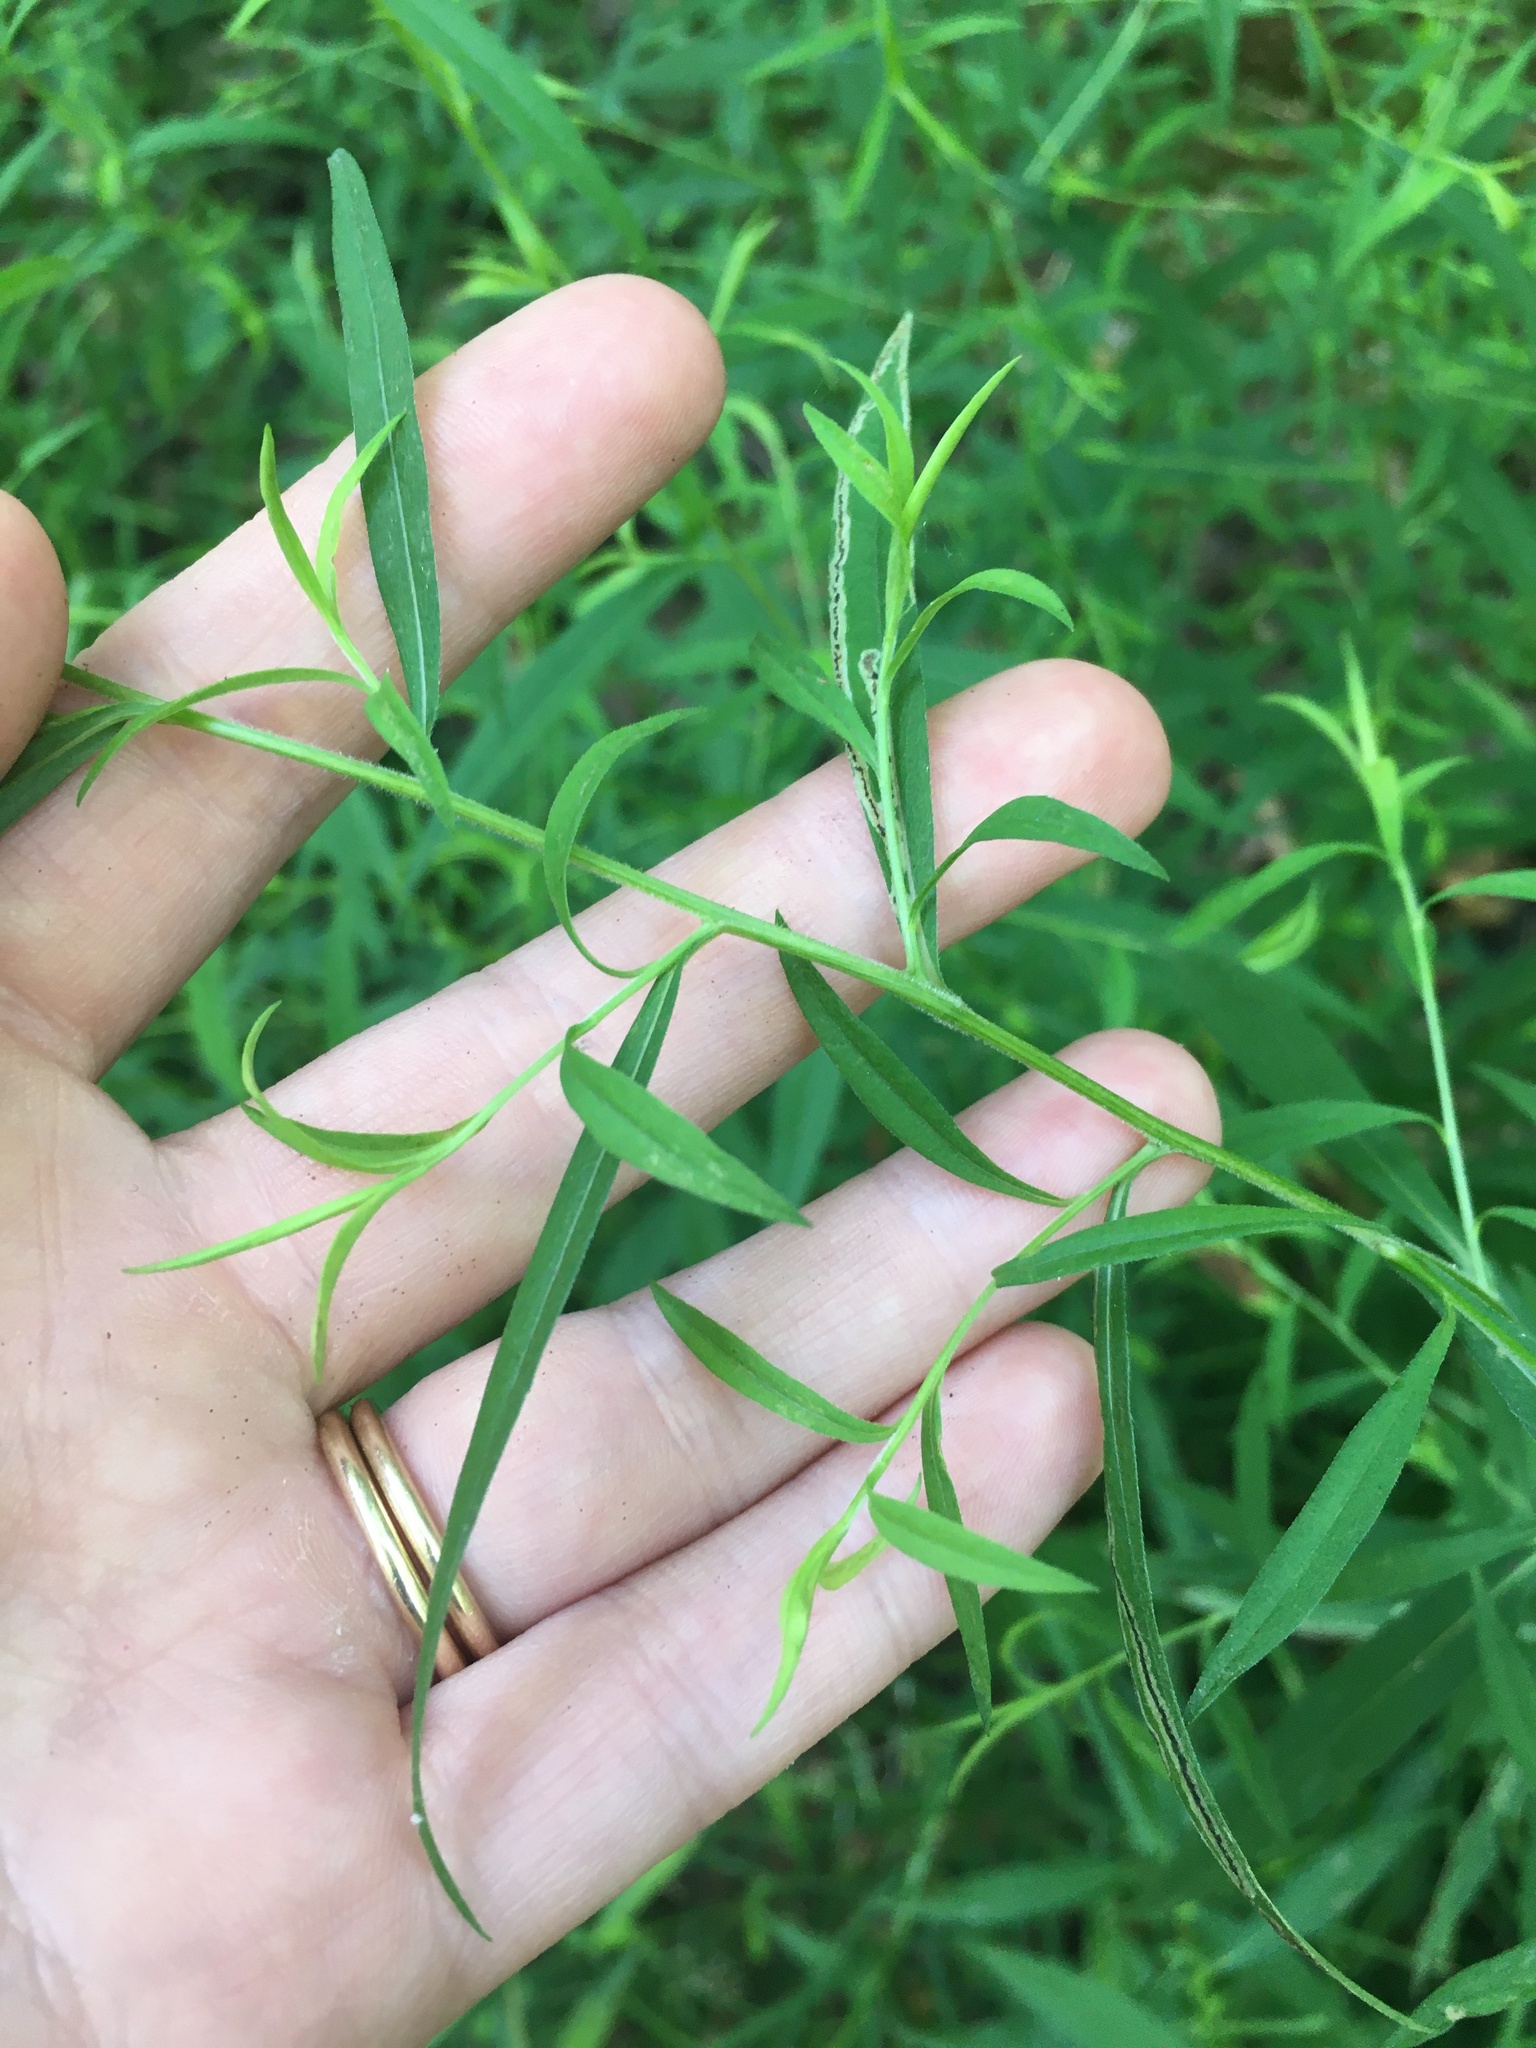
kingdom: Plantae
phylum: Tracheophyta
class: Magnoliopsida
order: Asterales
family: Asteraceae
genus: Symphyotrichum
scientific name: Symphyotrichum lanceolatum
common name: Panicled aster
